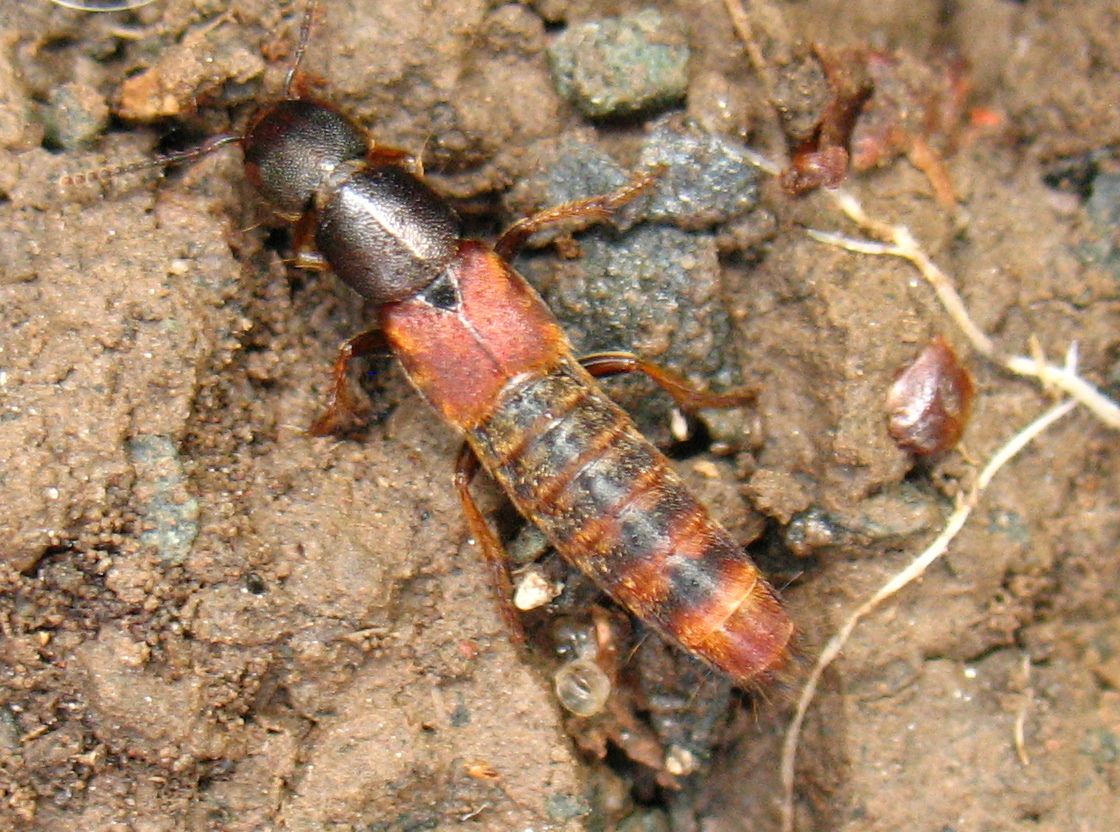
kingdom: Animalia
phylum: Arthropoda
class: Insecta
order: Coleoptera
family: Staphylinidae
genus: Platydracus
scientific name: Platydracus cinnamopterus
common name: Cinnamon rove beetle
